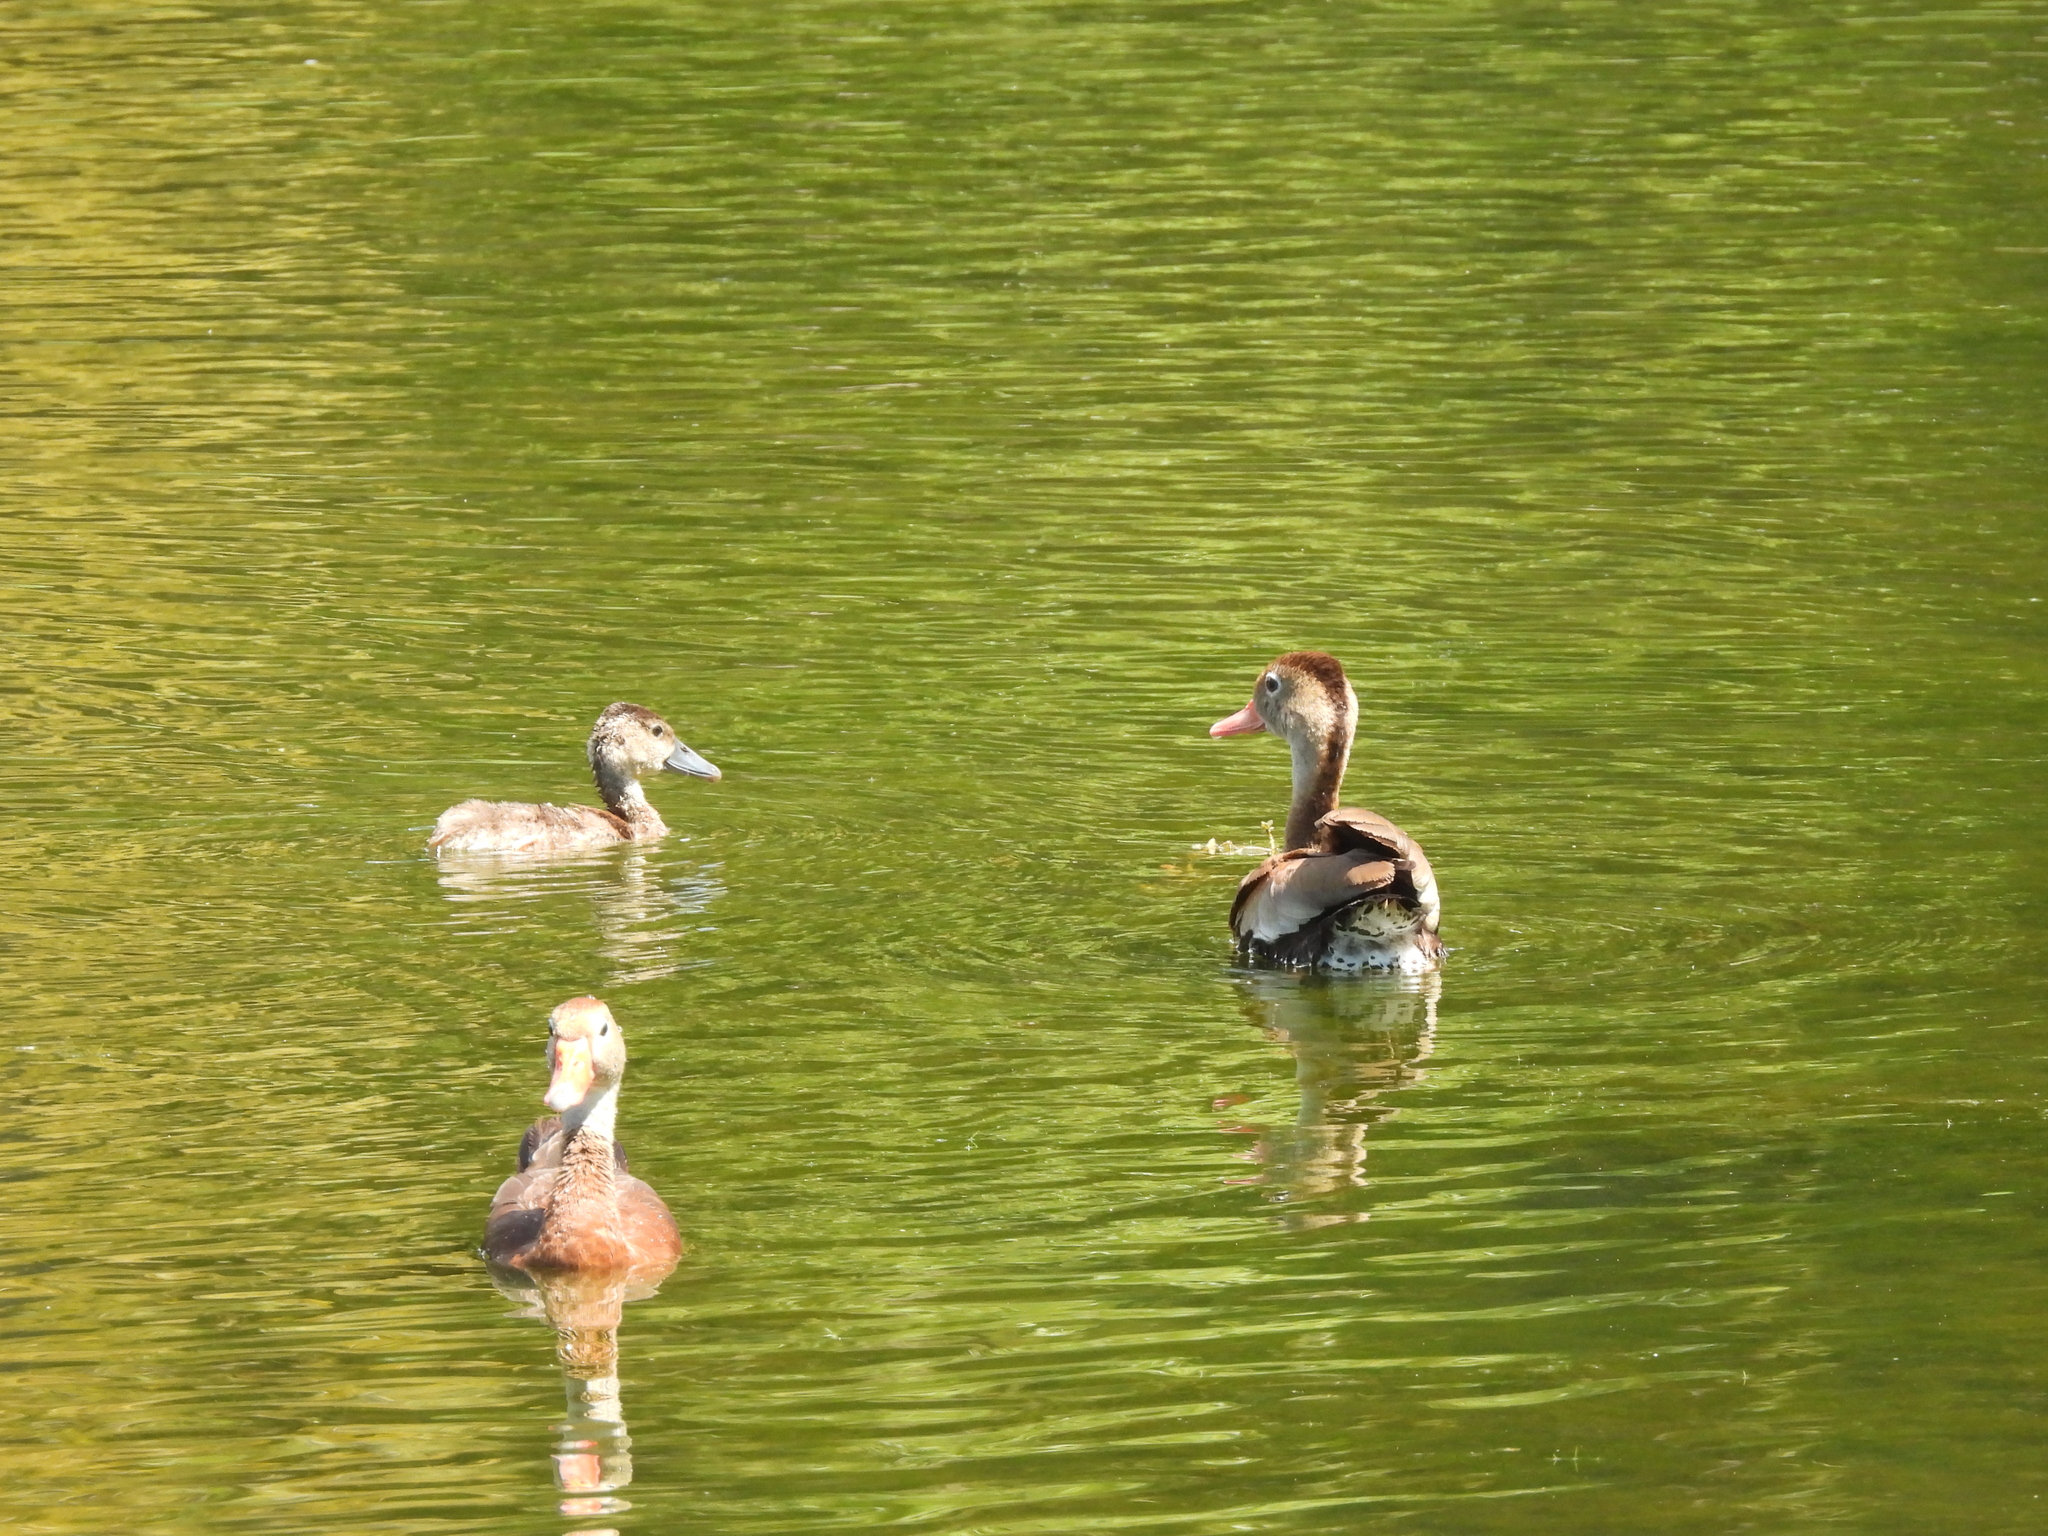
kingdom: Animalia
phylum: Chordata
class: Aves
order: Anseriformes
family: Anatidae
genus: Dendrocygna
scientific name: Dendrocygna autumnalis
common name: Black-bellied whistling duck
